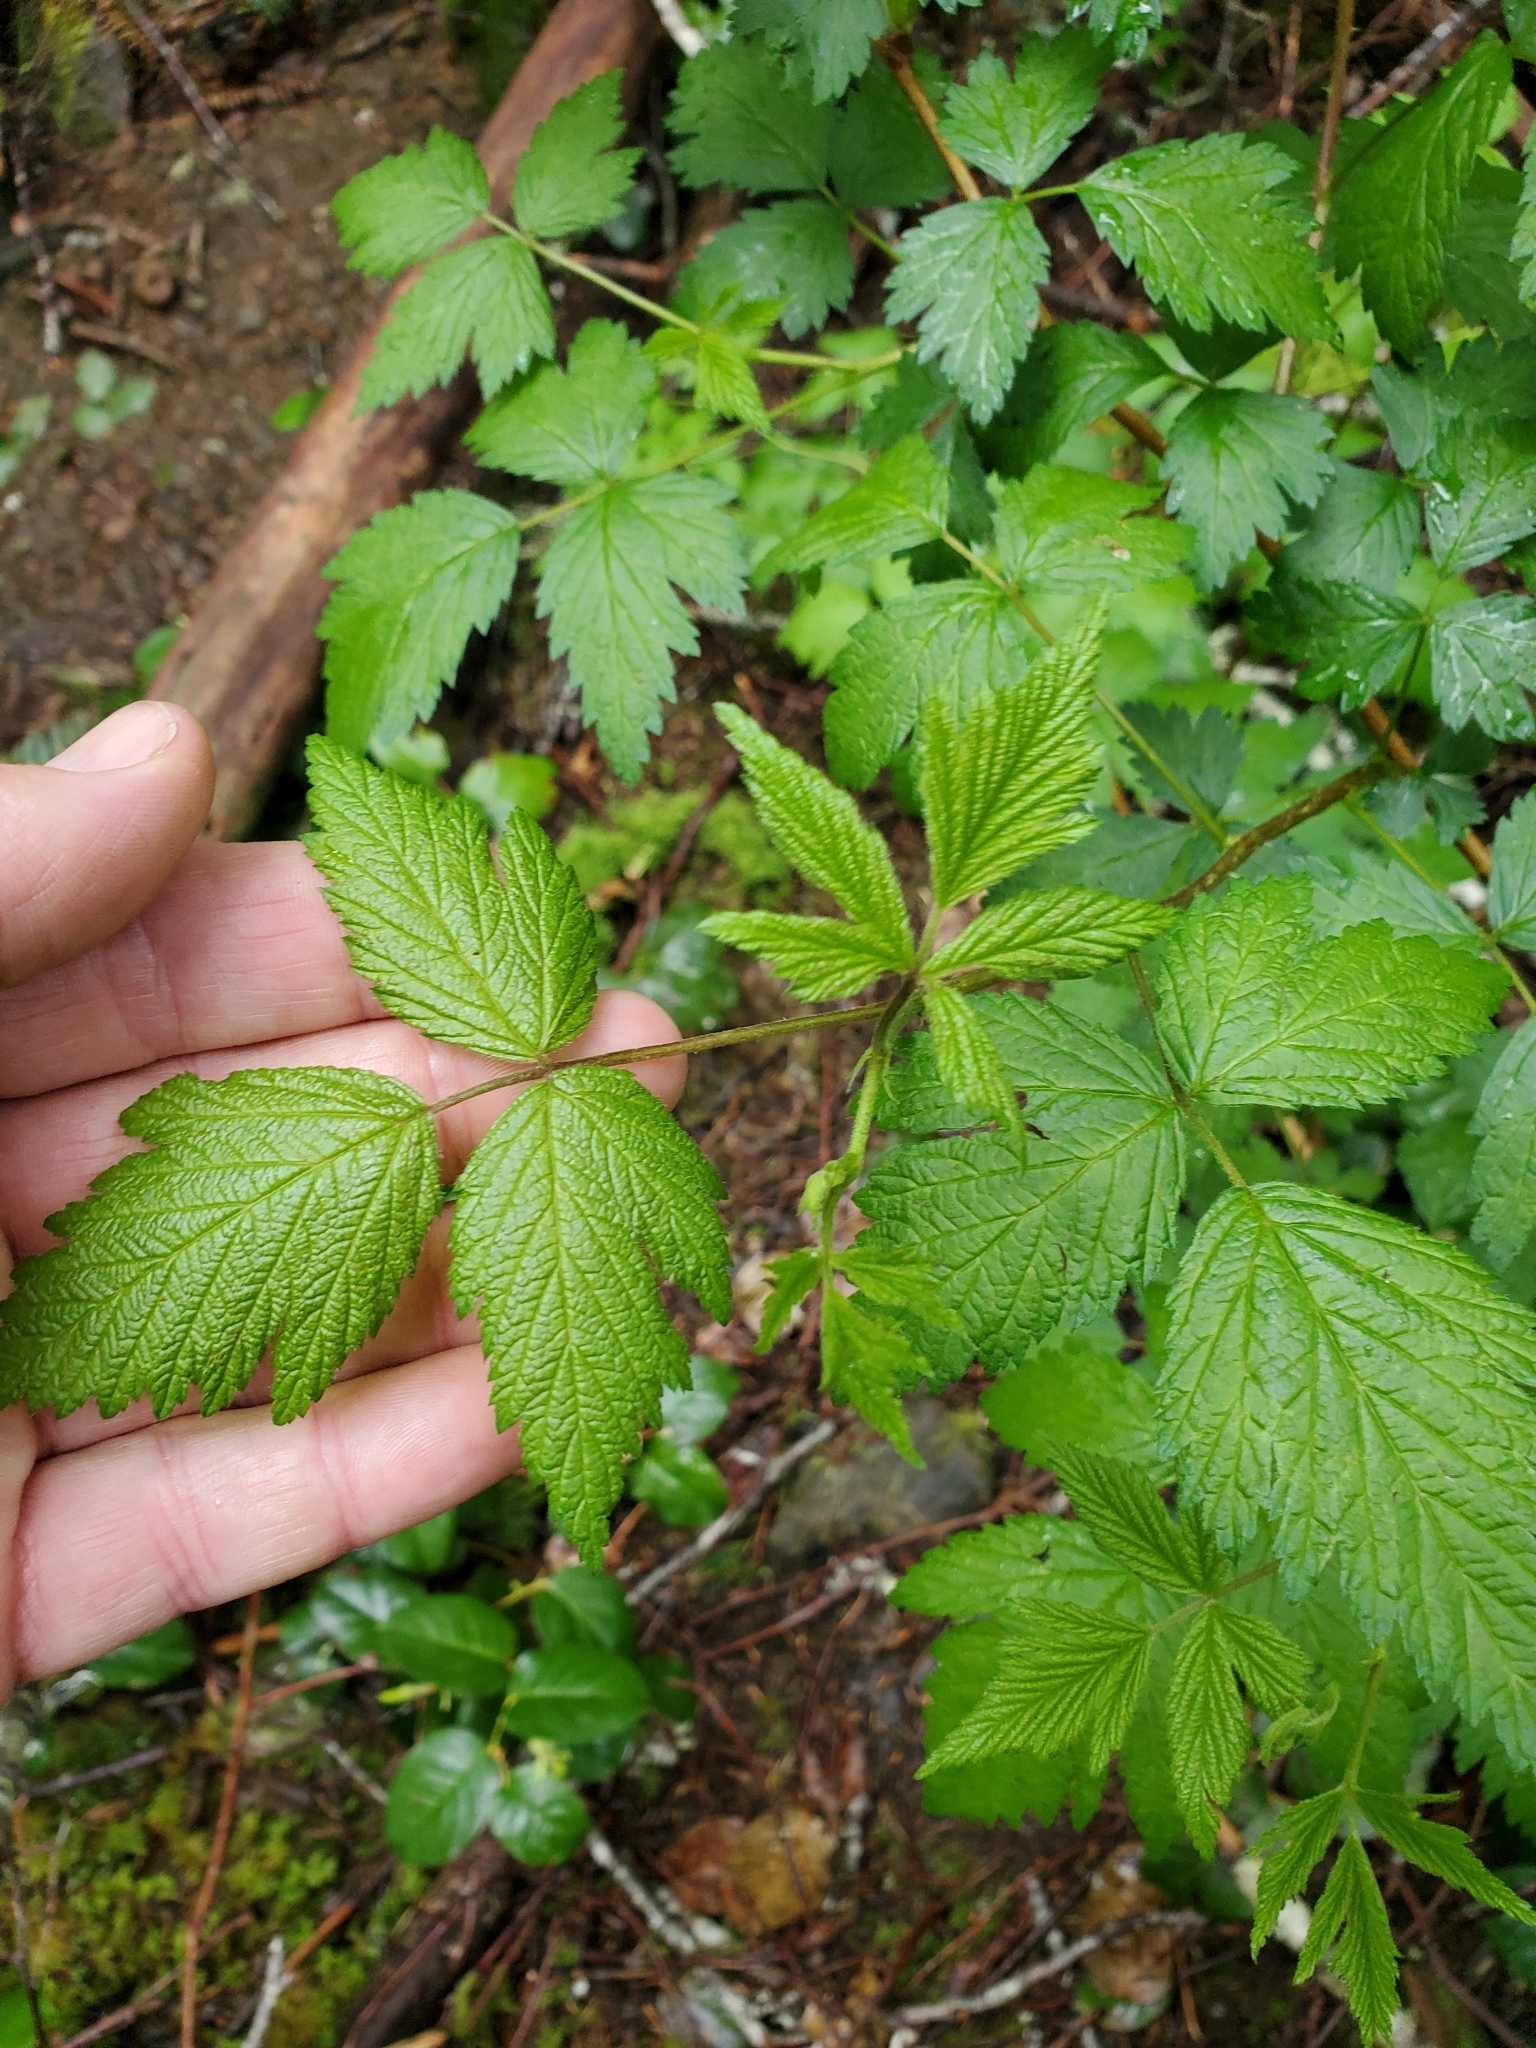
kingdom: Plantae
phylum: Tracheophyta
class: Magnoliopsida
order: Rosales
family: Rosaceae
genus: Rubus
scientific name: Rubus spectabilis
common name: Salmonberry
